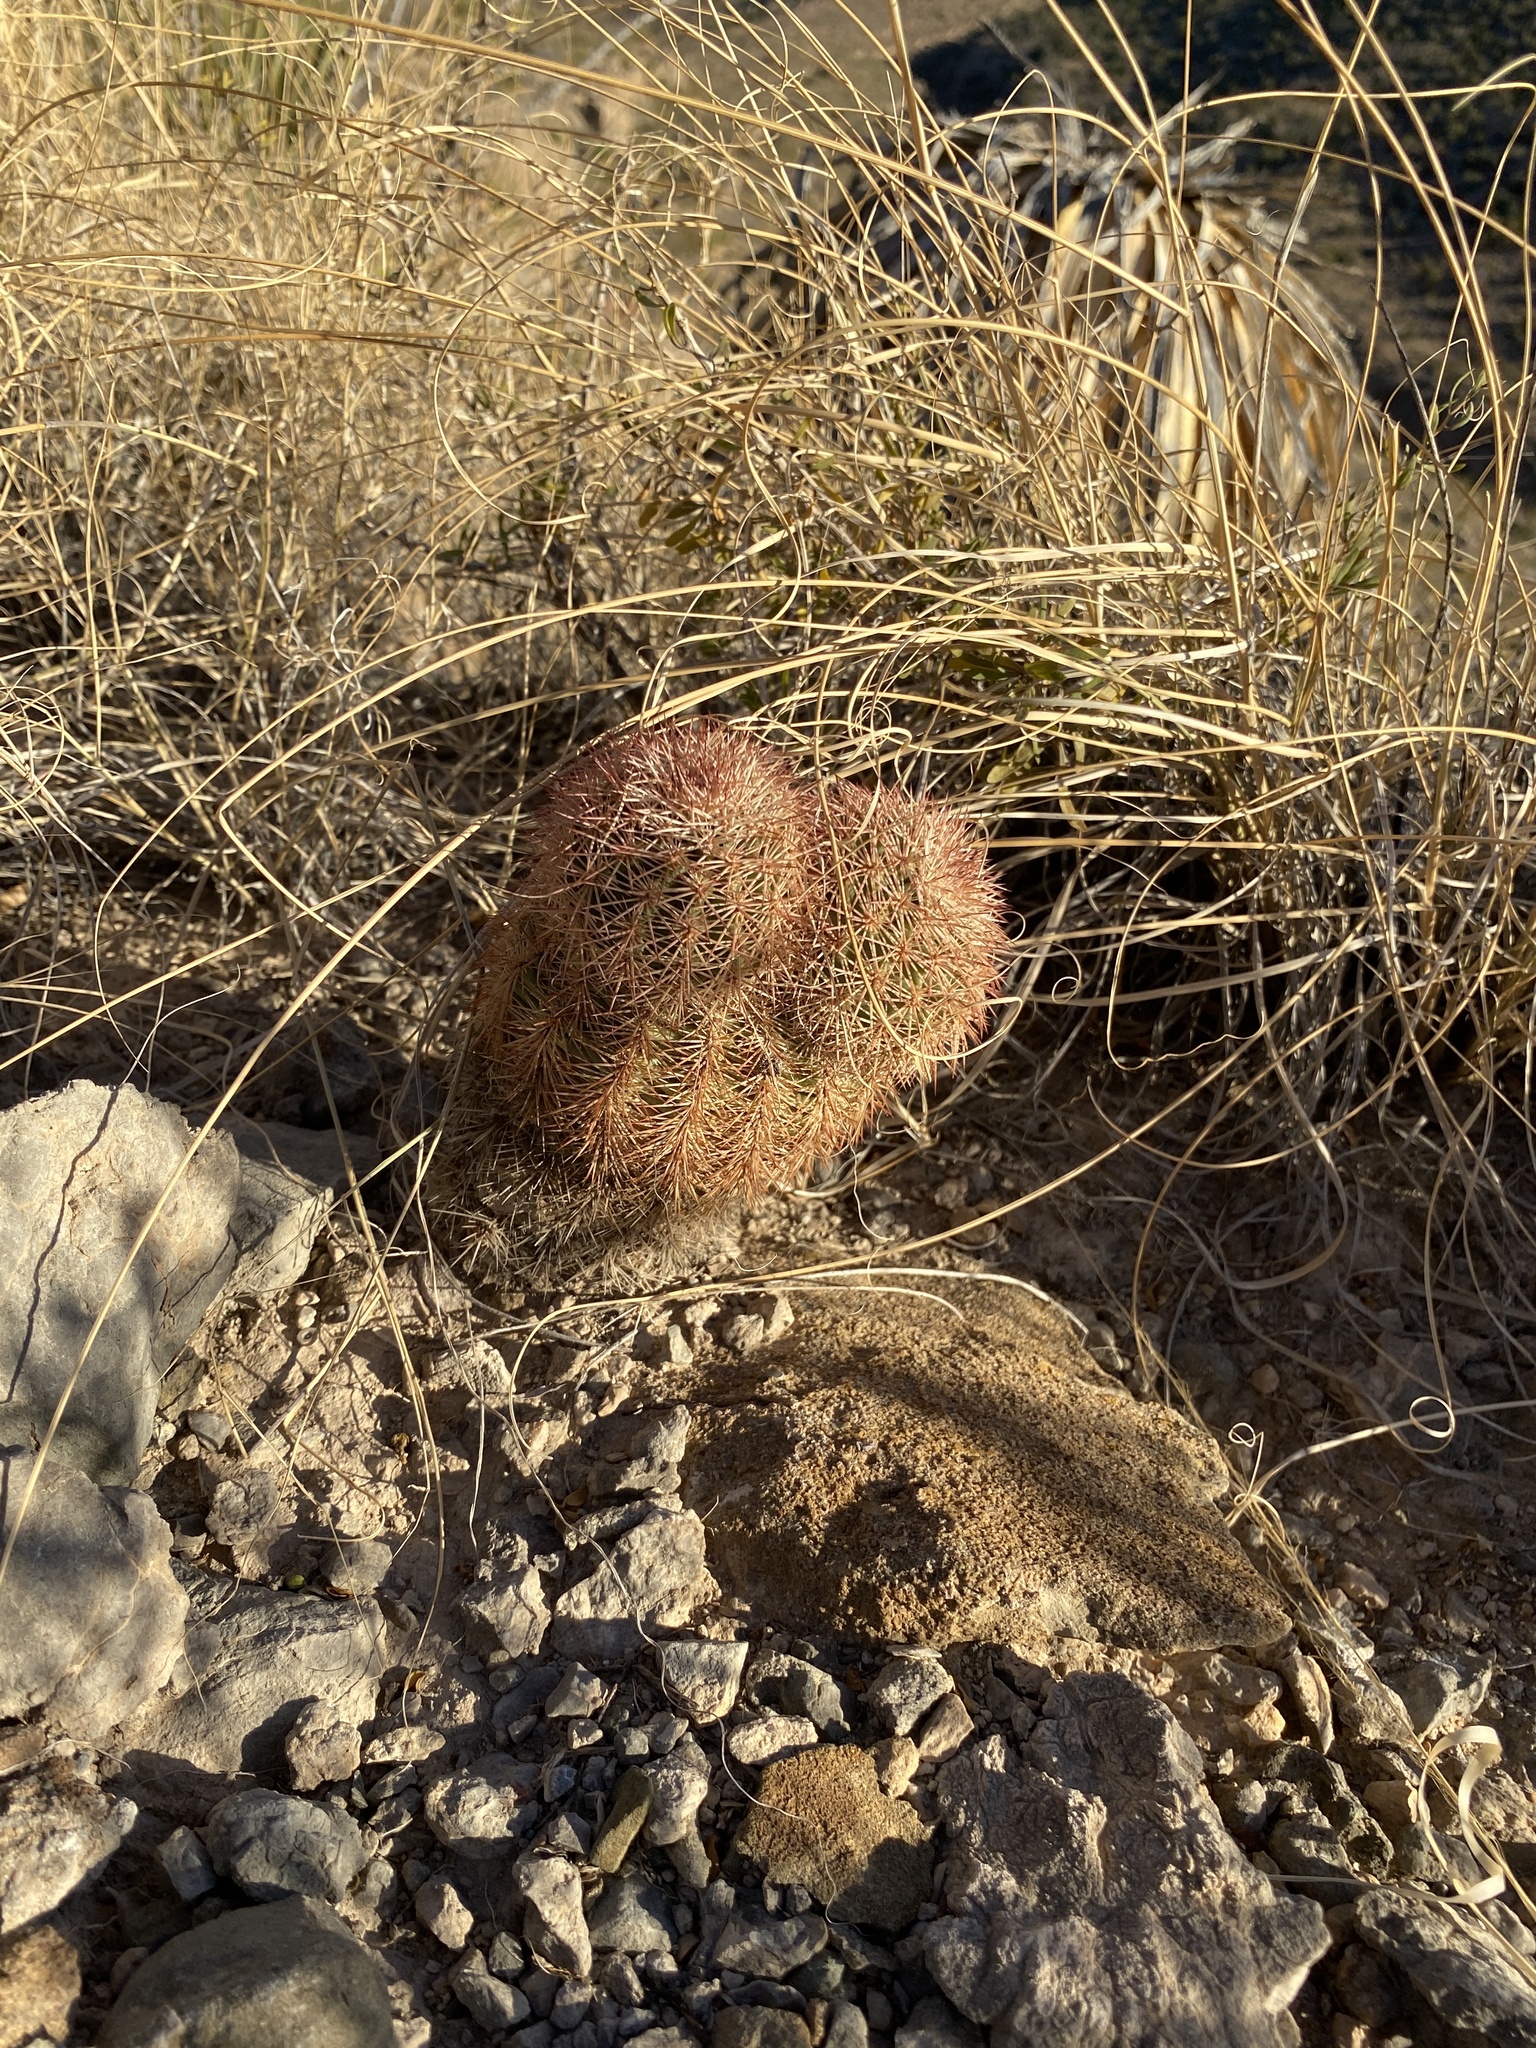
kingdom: Plantae
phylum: Tracheophyta
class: Magnoliopsida
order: Caryophyllales
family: Cactaceae
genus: Echinocereus
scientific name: Echinocereus dasyacanthus
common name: Spiny hedgehog cactus
